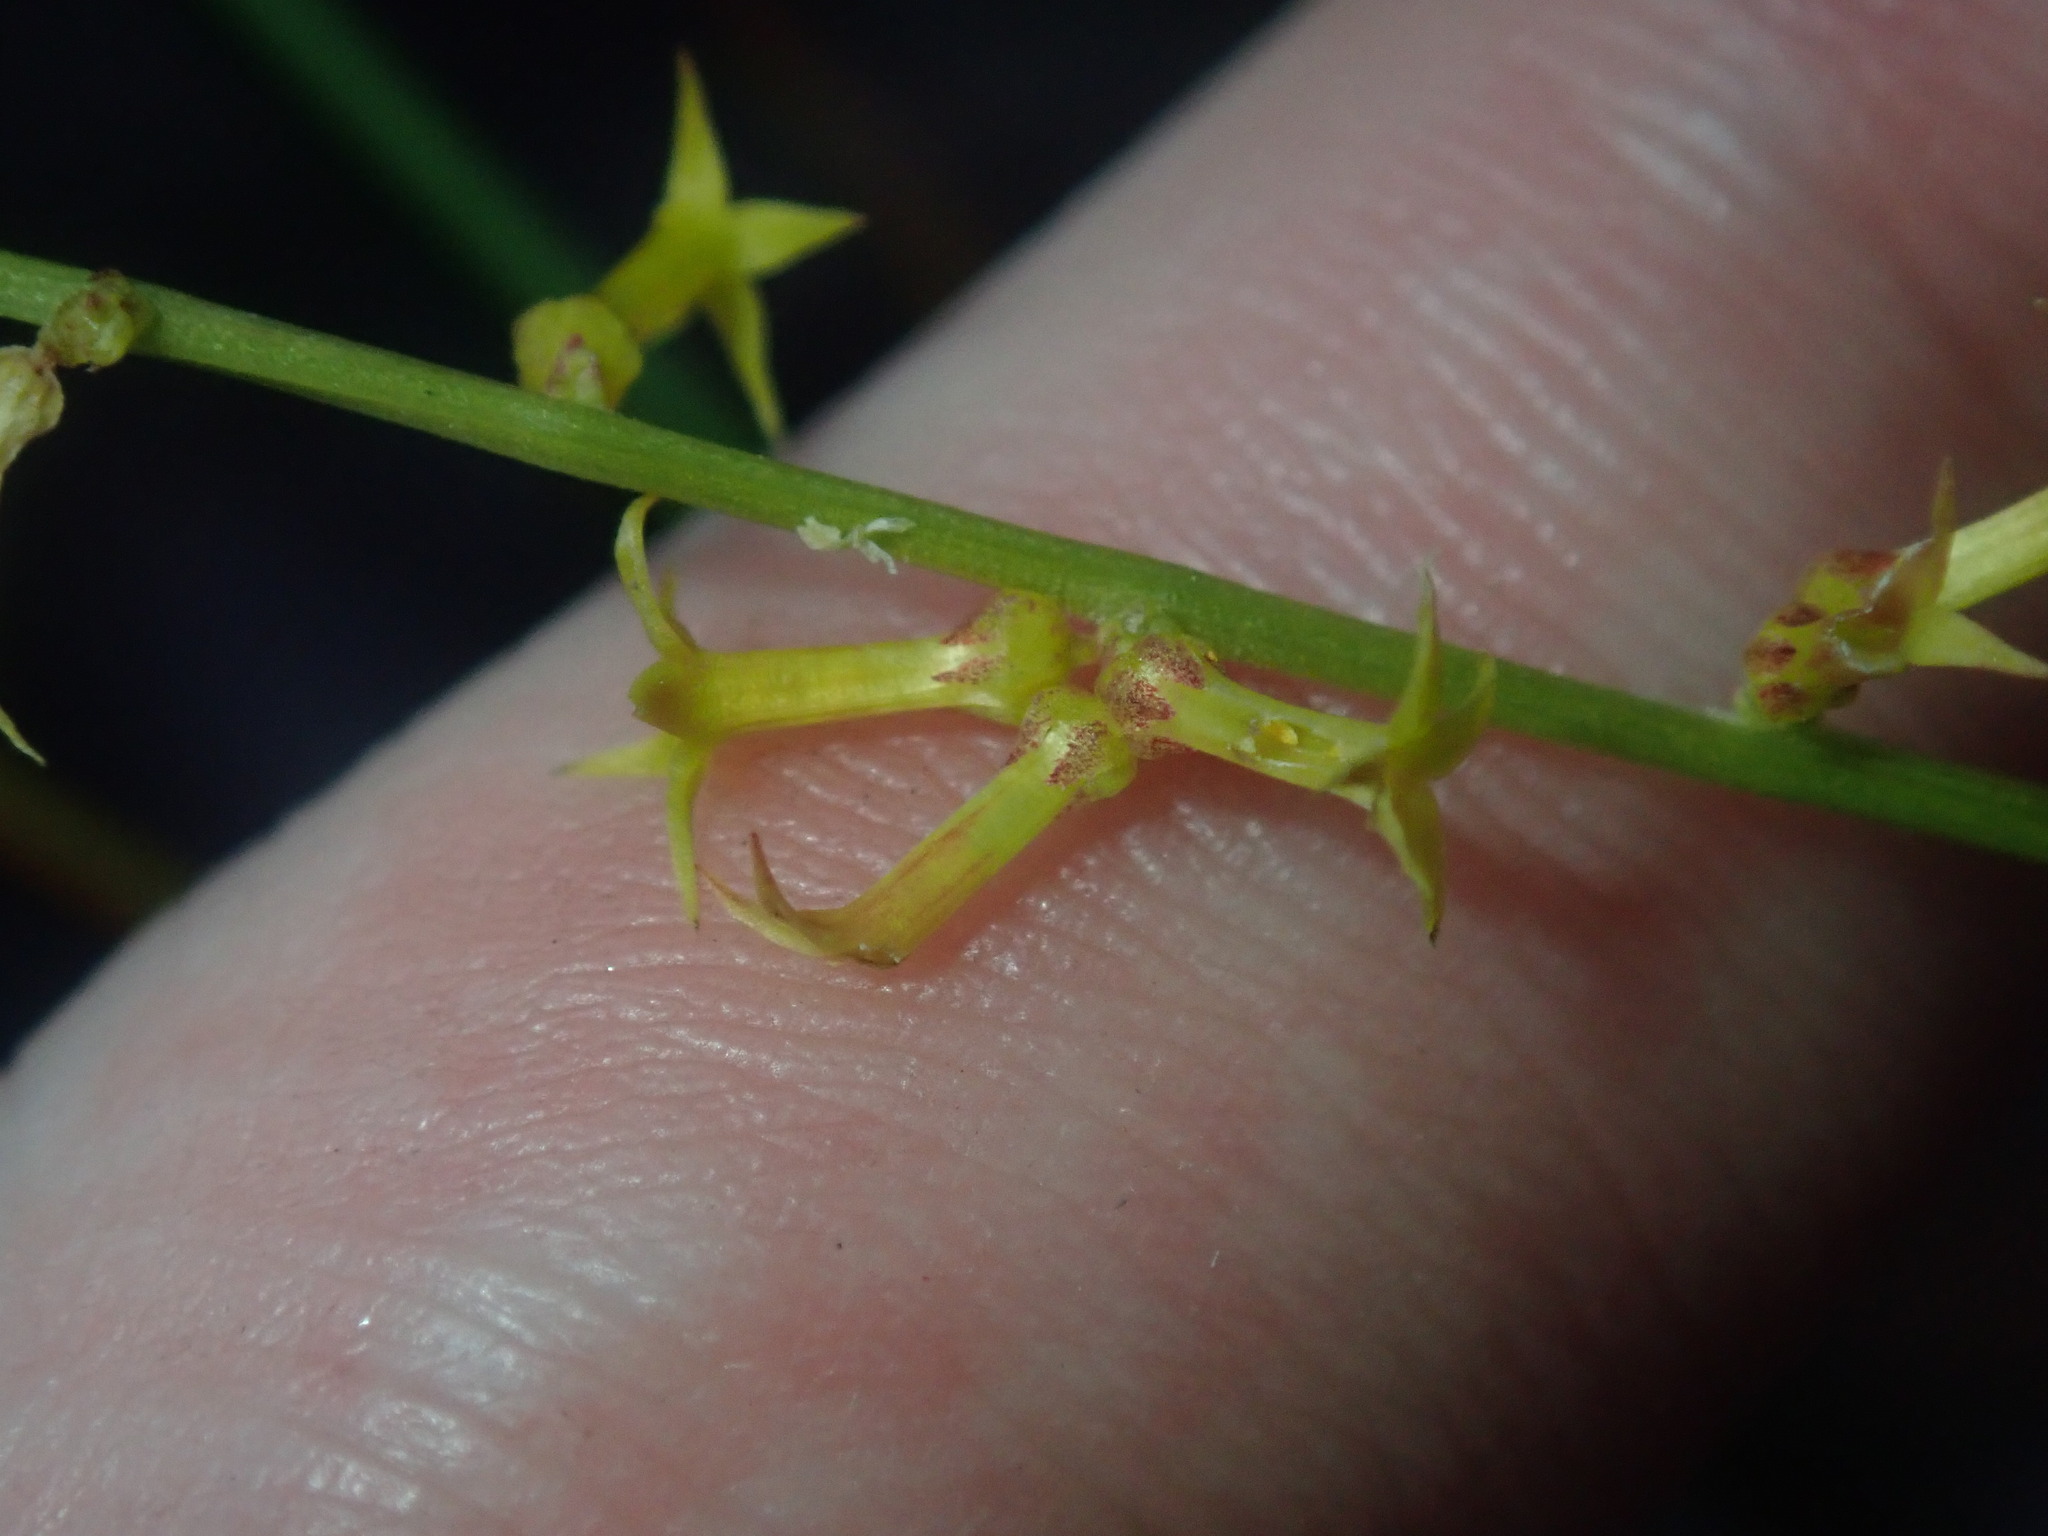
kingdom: Plantae
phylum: Tracheophyta
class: Magnoliopsida
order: Celastrales
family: Celastraceae
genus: Stackhousia
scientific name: Stackhousia viminea
